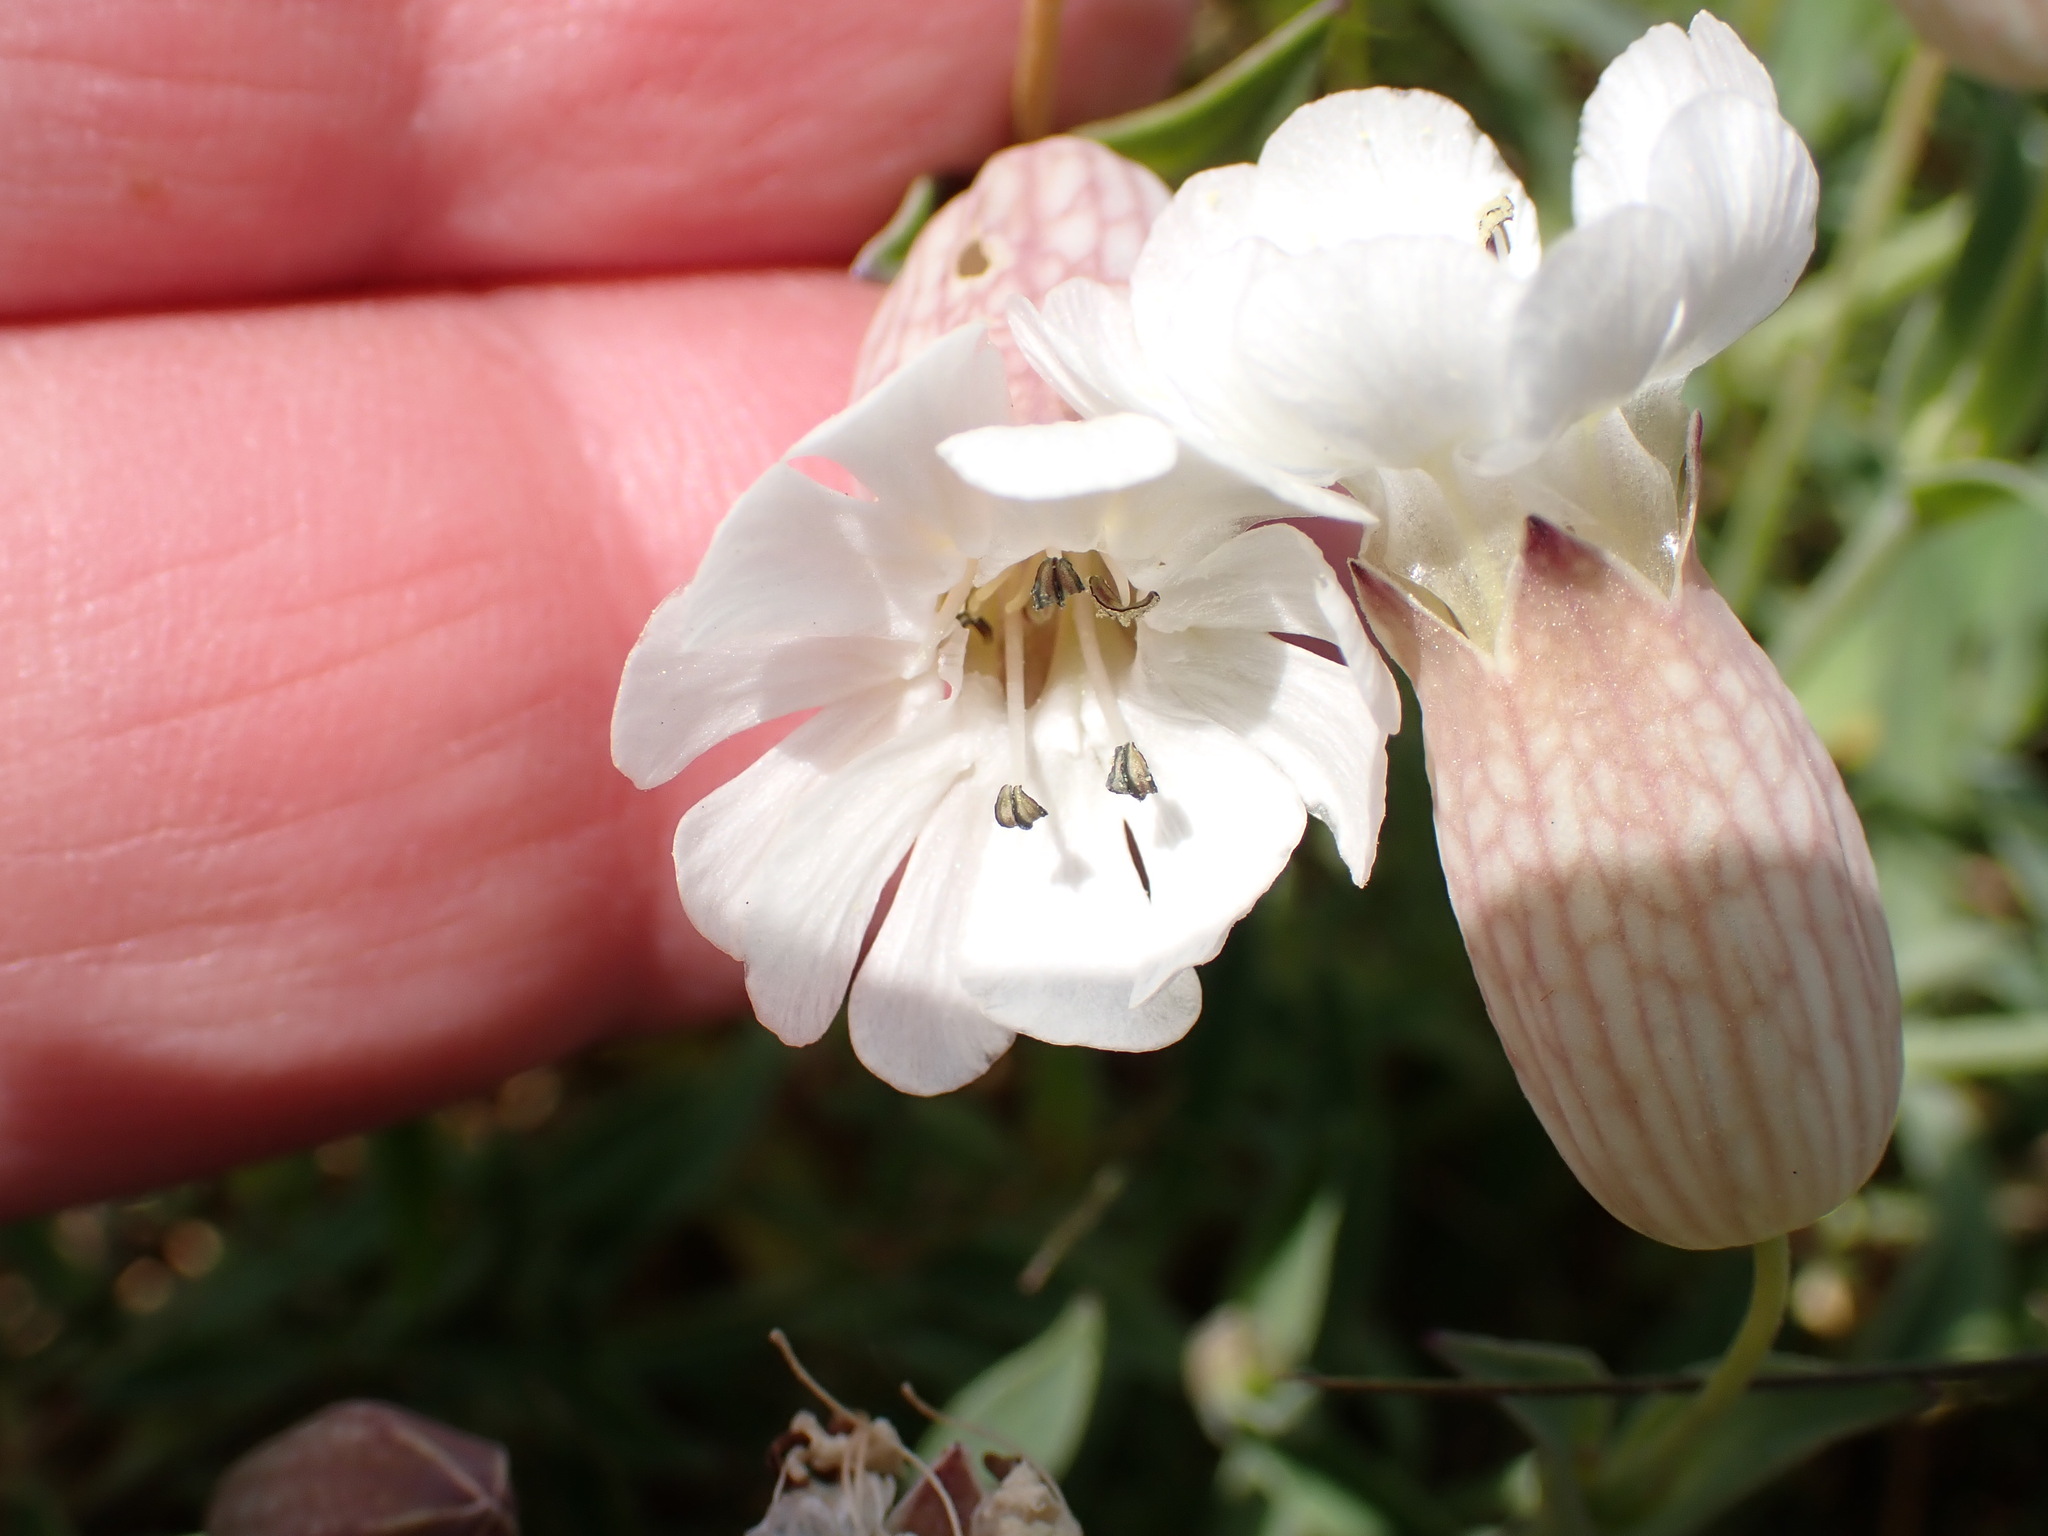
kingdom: Plantae
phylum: Tracheophyta
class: Magnoliopsida
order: Caryophyllales
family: Caryophyllaceae
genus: Silene
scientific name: Silene uniflora
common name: Sea campion
